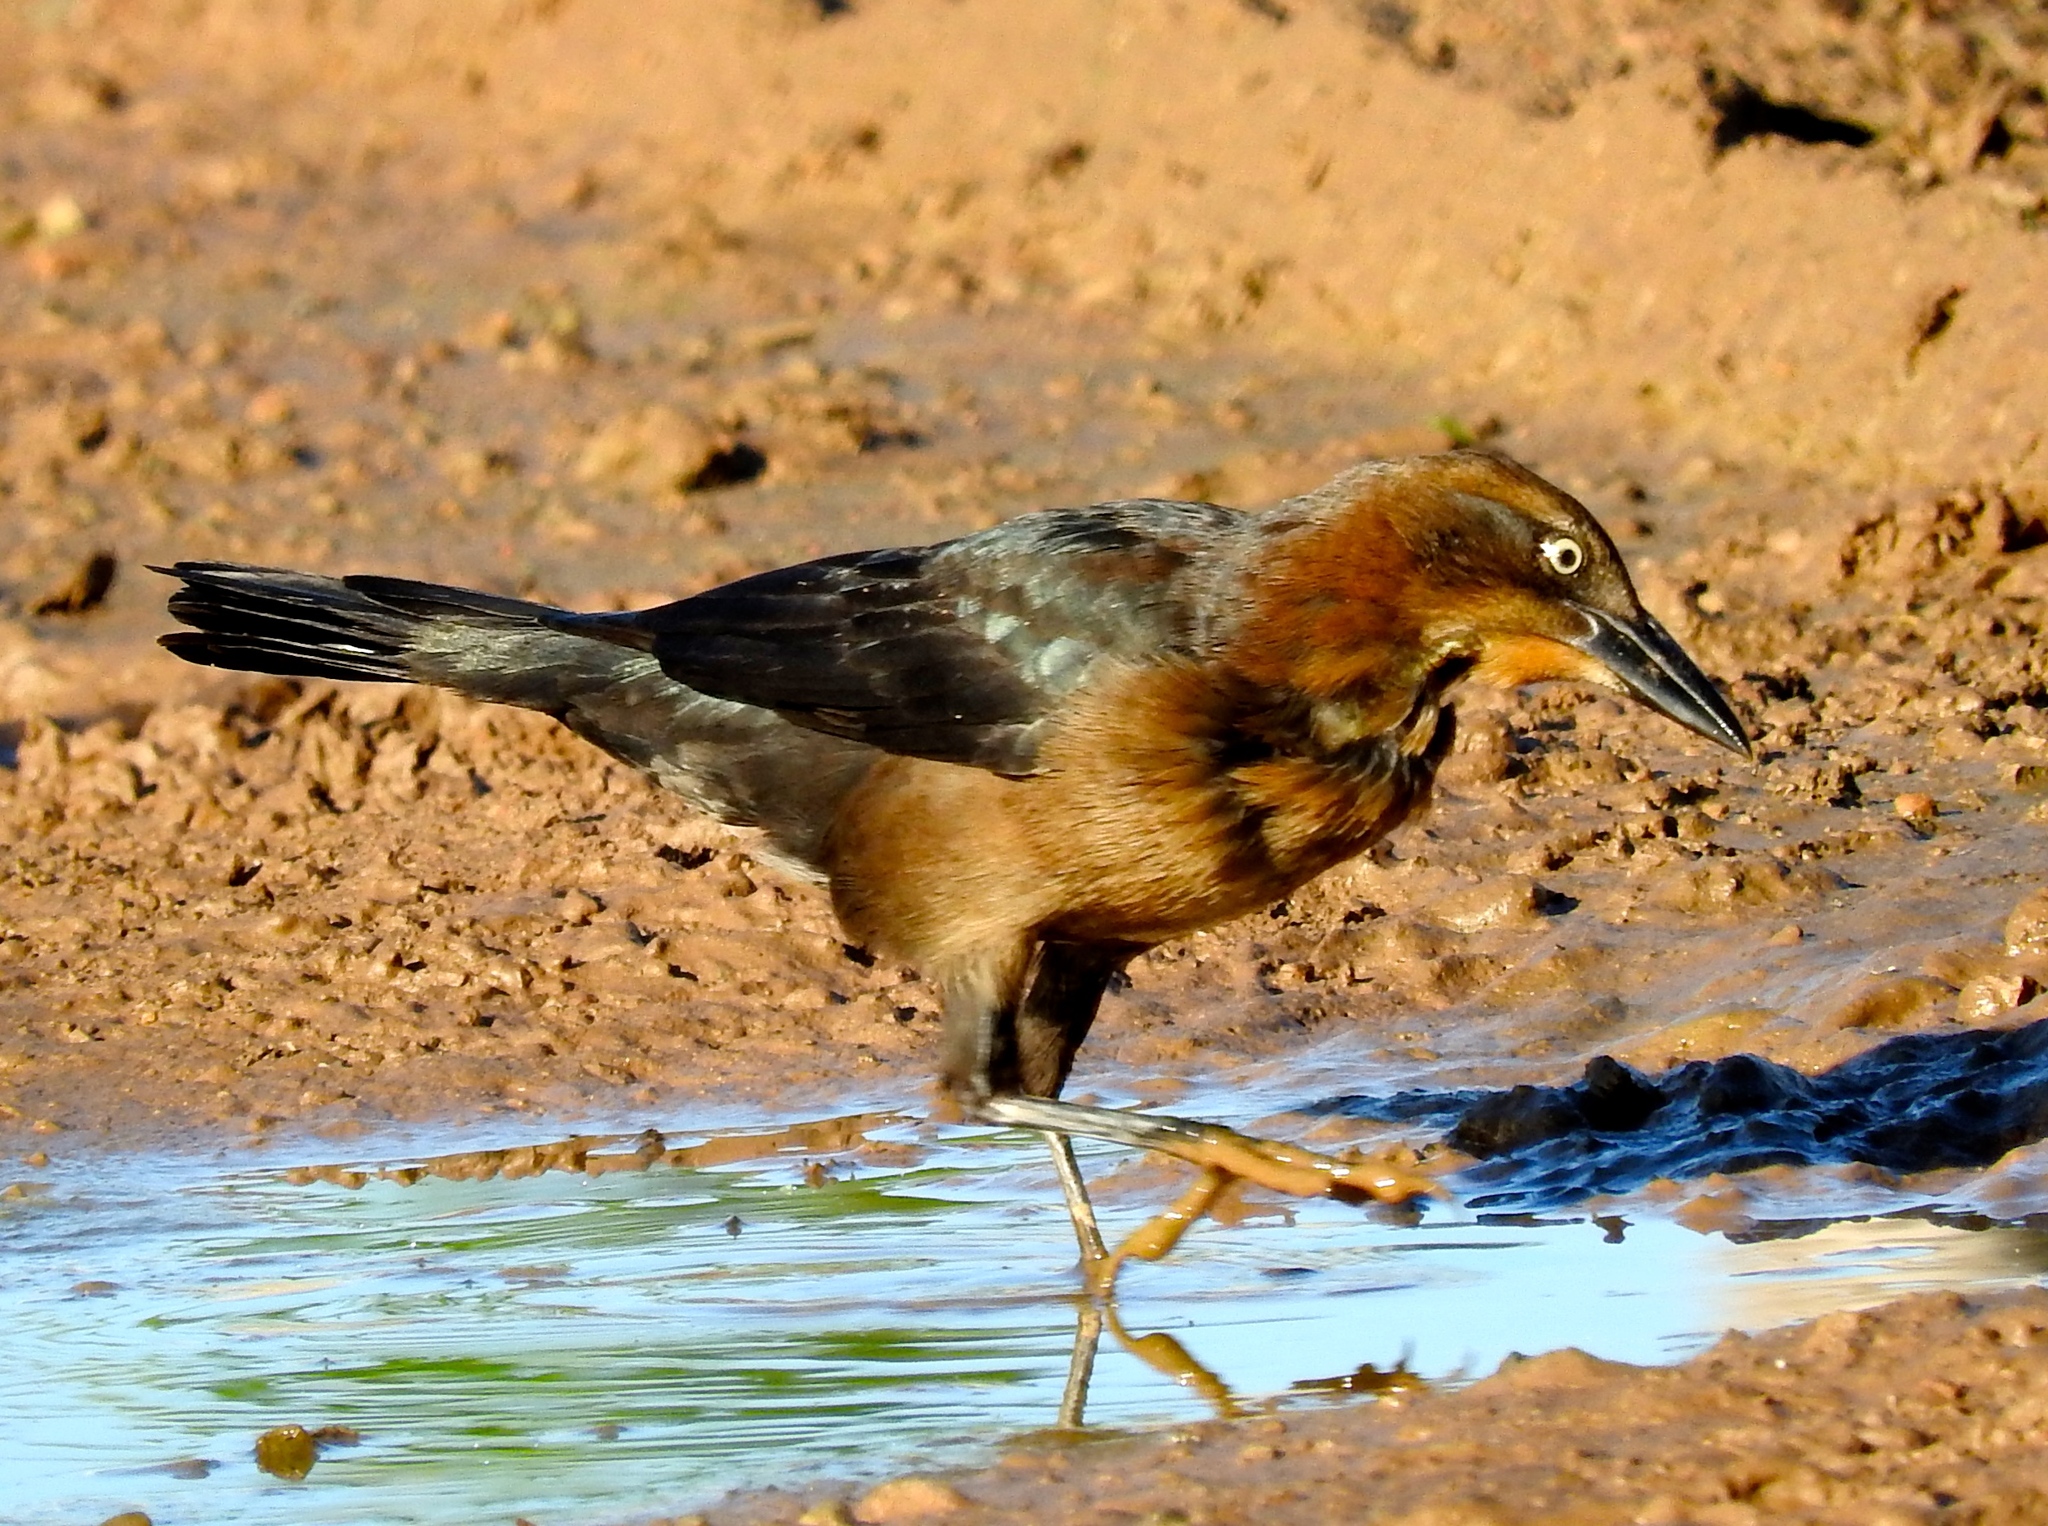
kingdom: Animalia
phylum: Chordata
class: Aves
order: Passeriformes
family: Icteridae
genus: Quiscalus
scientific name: Quiscalus mexicanus
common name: Great-tailed grackle
